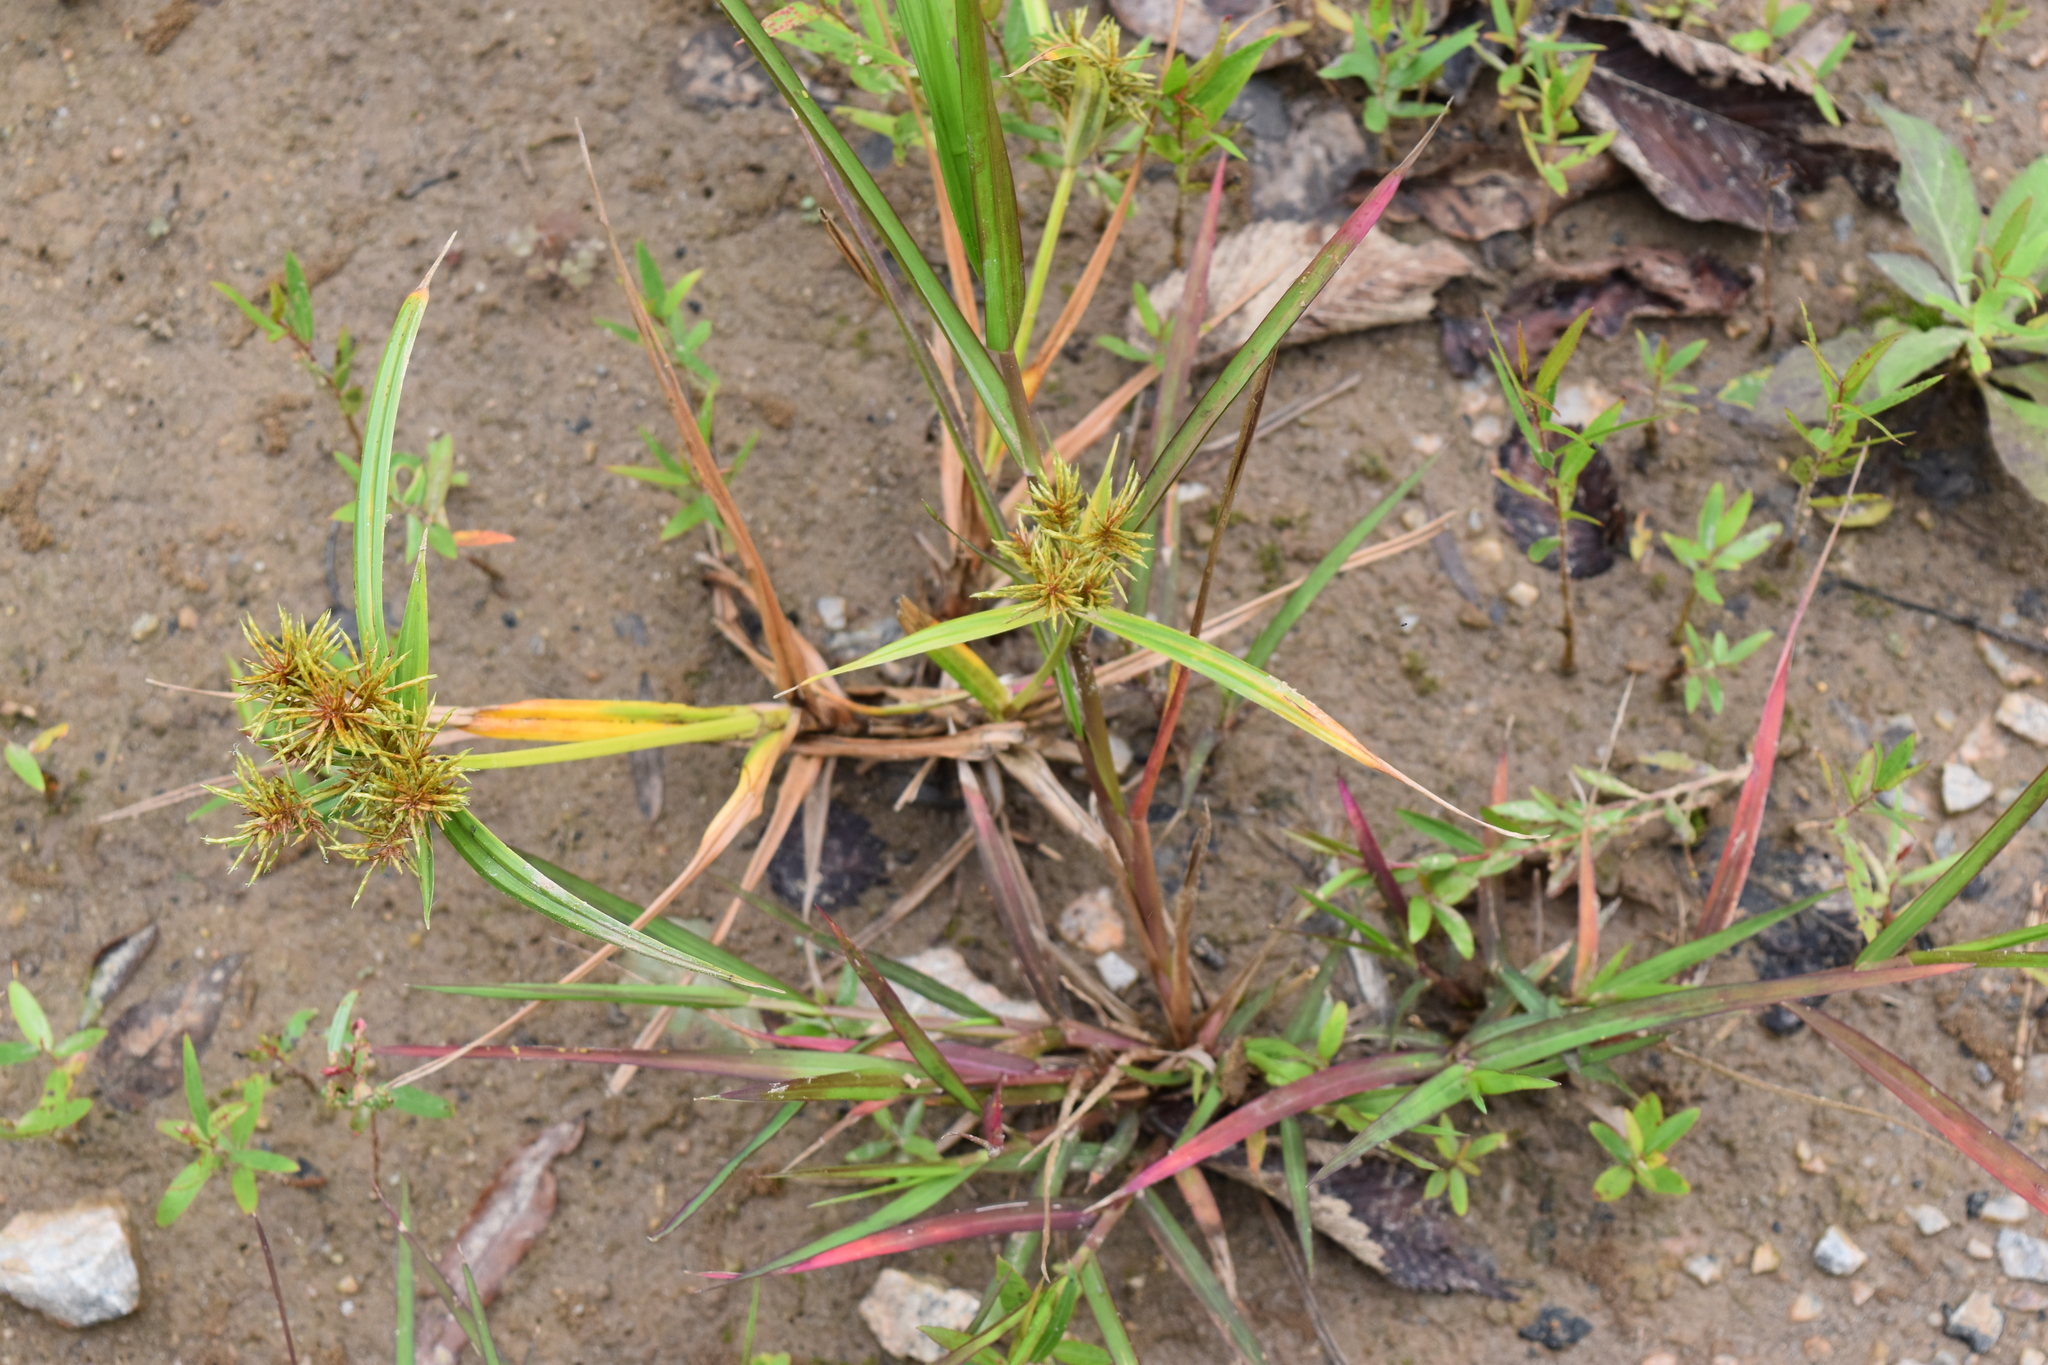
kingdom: Plantae
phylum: Tracheophyta
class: Liliopsida
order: Poales
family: Cyperaceae
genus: Cyperus
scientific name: Cyperus odoratus
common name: Fragrant flatsedge
